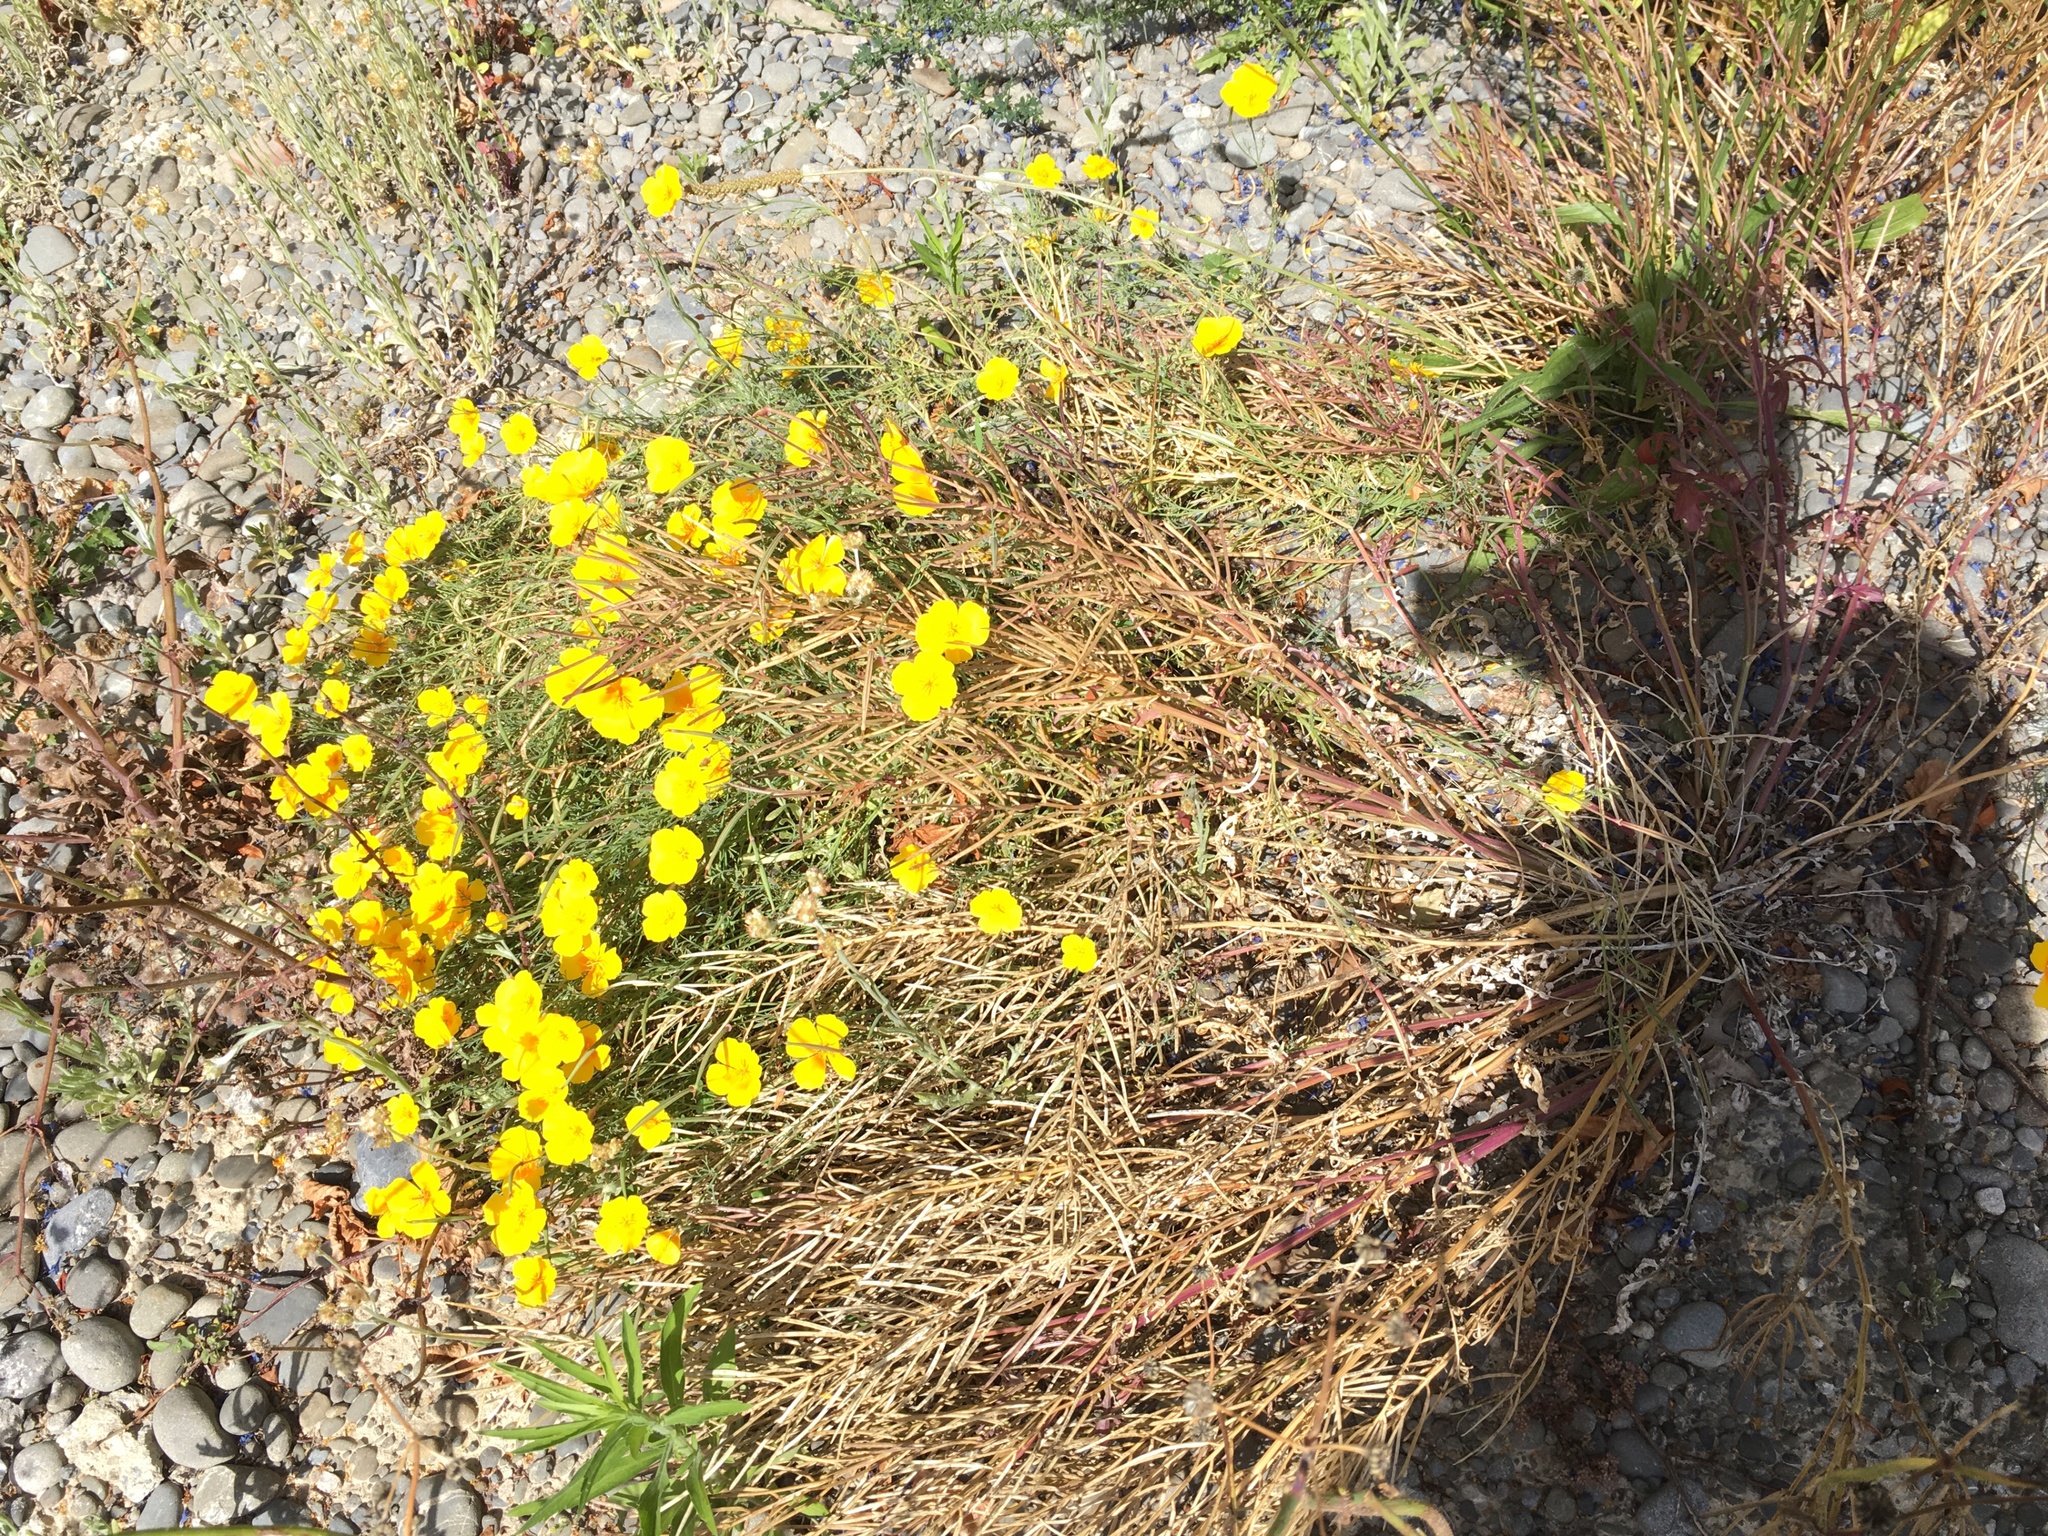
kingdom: Plantae
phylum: Tracheophyta
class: Magnoliopsida
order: Ranunculales
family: Papaveraceae
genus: Eschscholzia
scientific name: Eschscholzia californica
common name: California poppy
